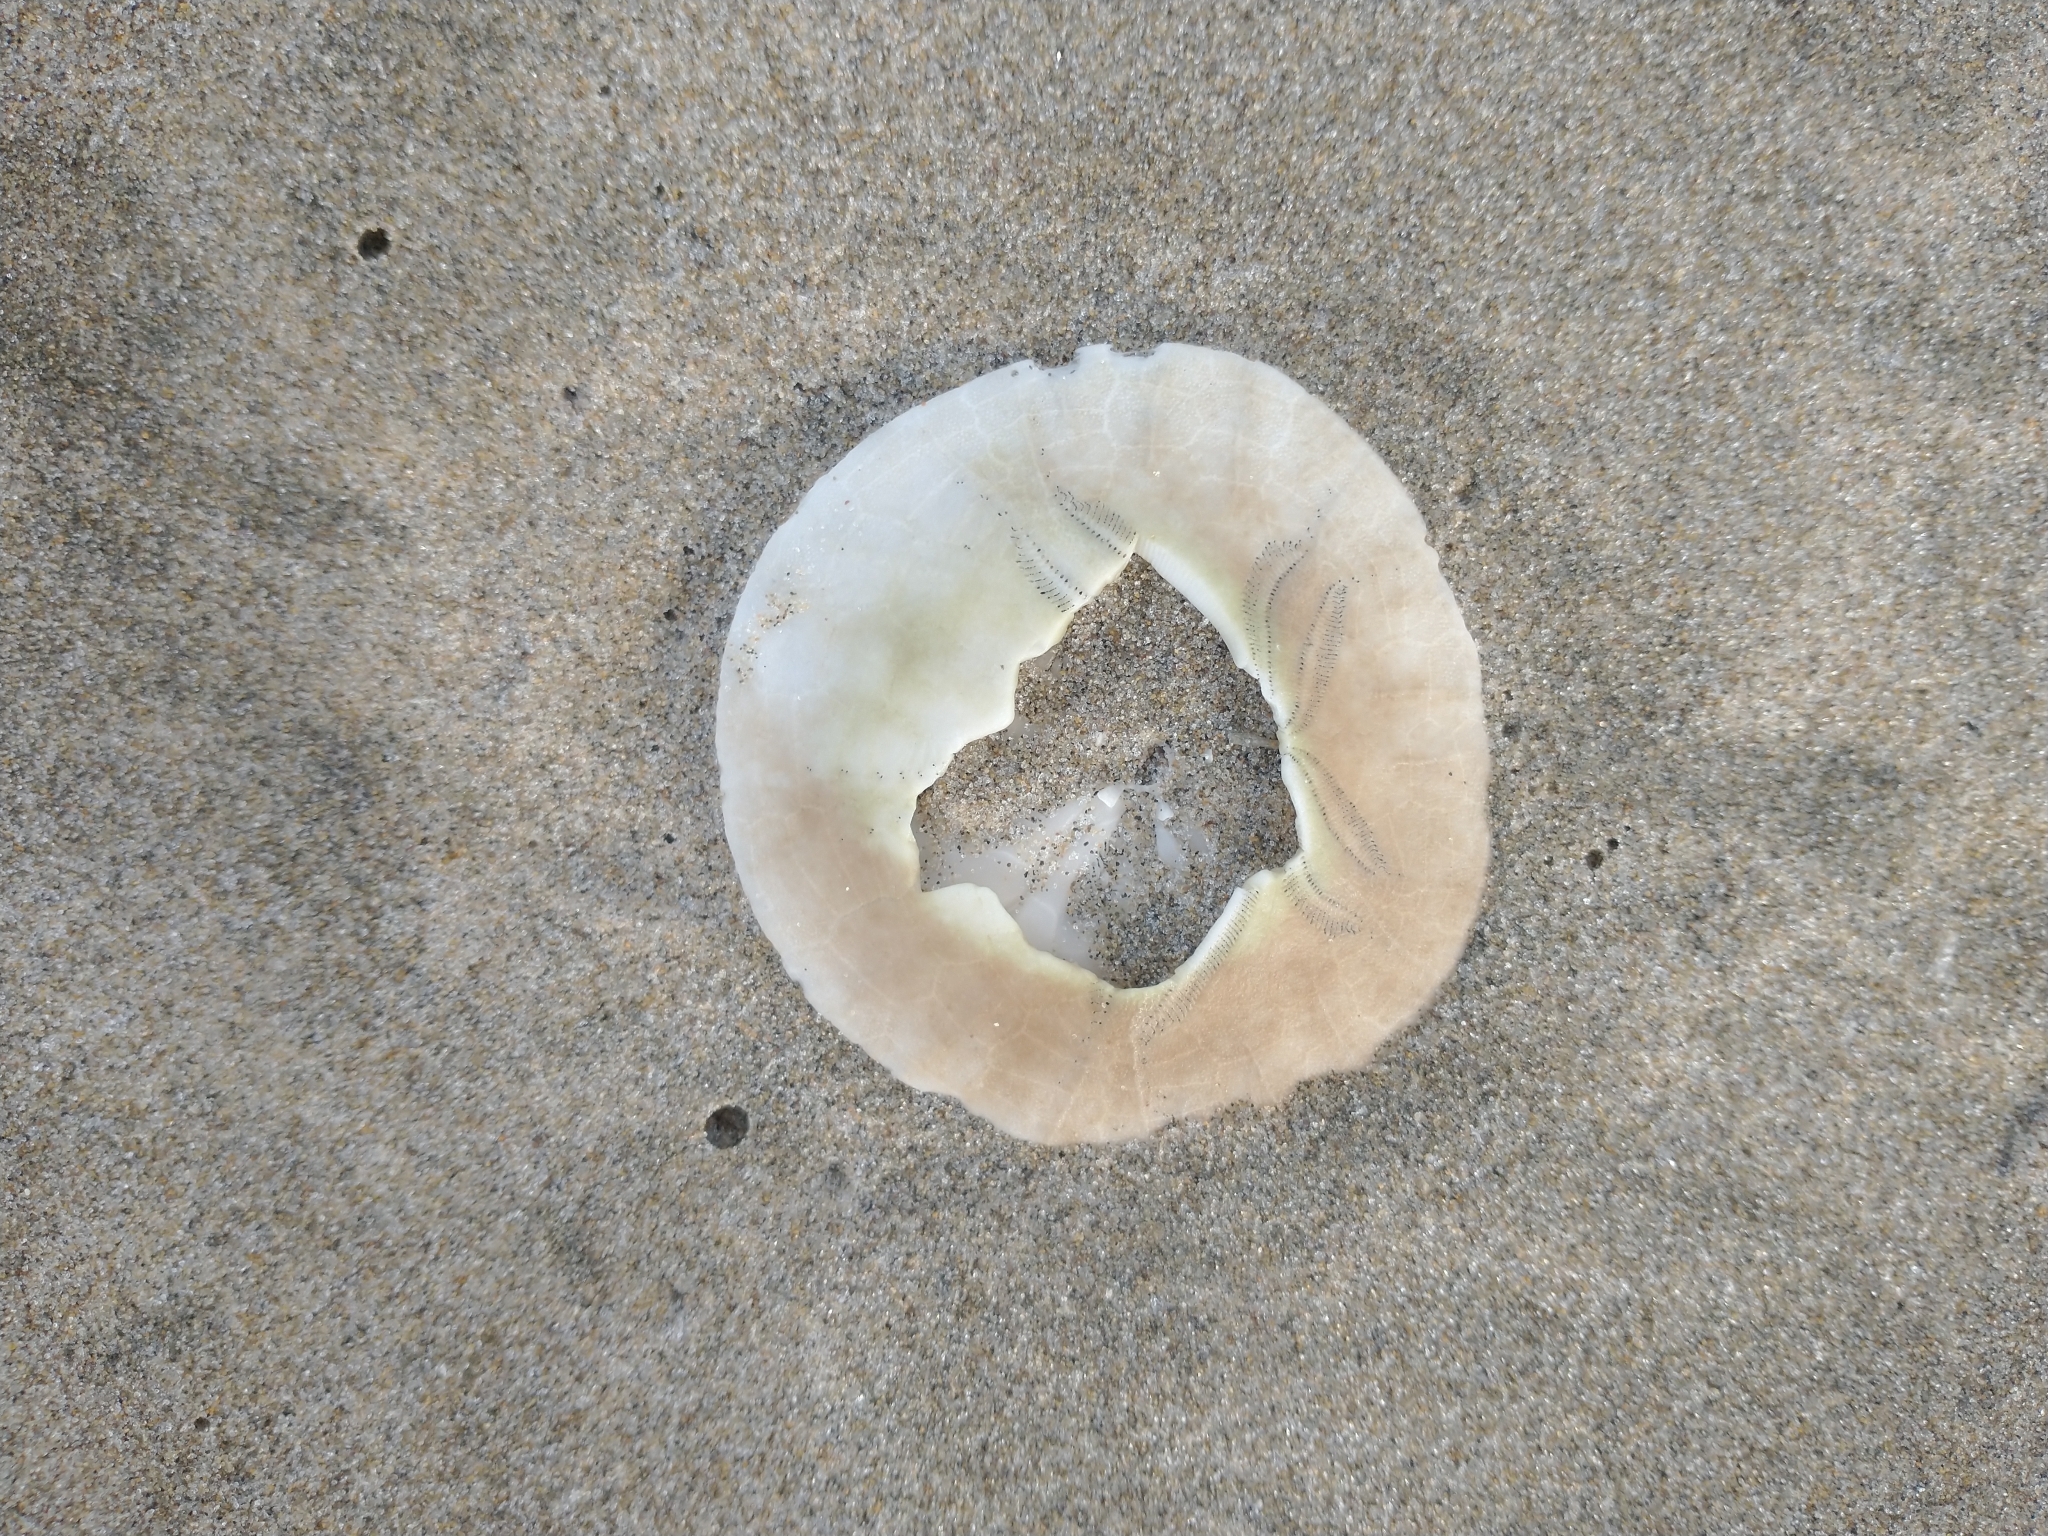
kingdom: Animalia
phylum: Echinodermata
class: Echinoidea
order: Echinolampadacea
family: Dendrasteridae
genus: Dendraster
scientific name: Dendraster excentricus
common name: Eccentric sand dollar sea urchin
